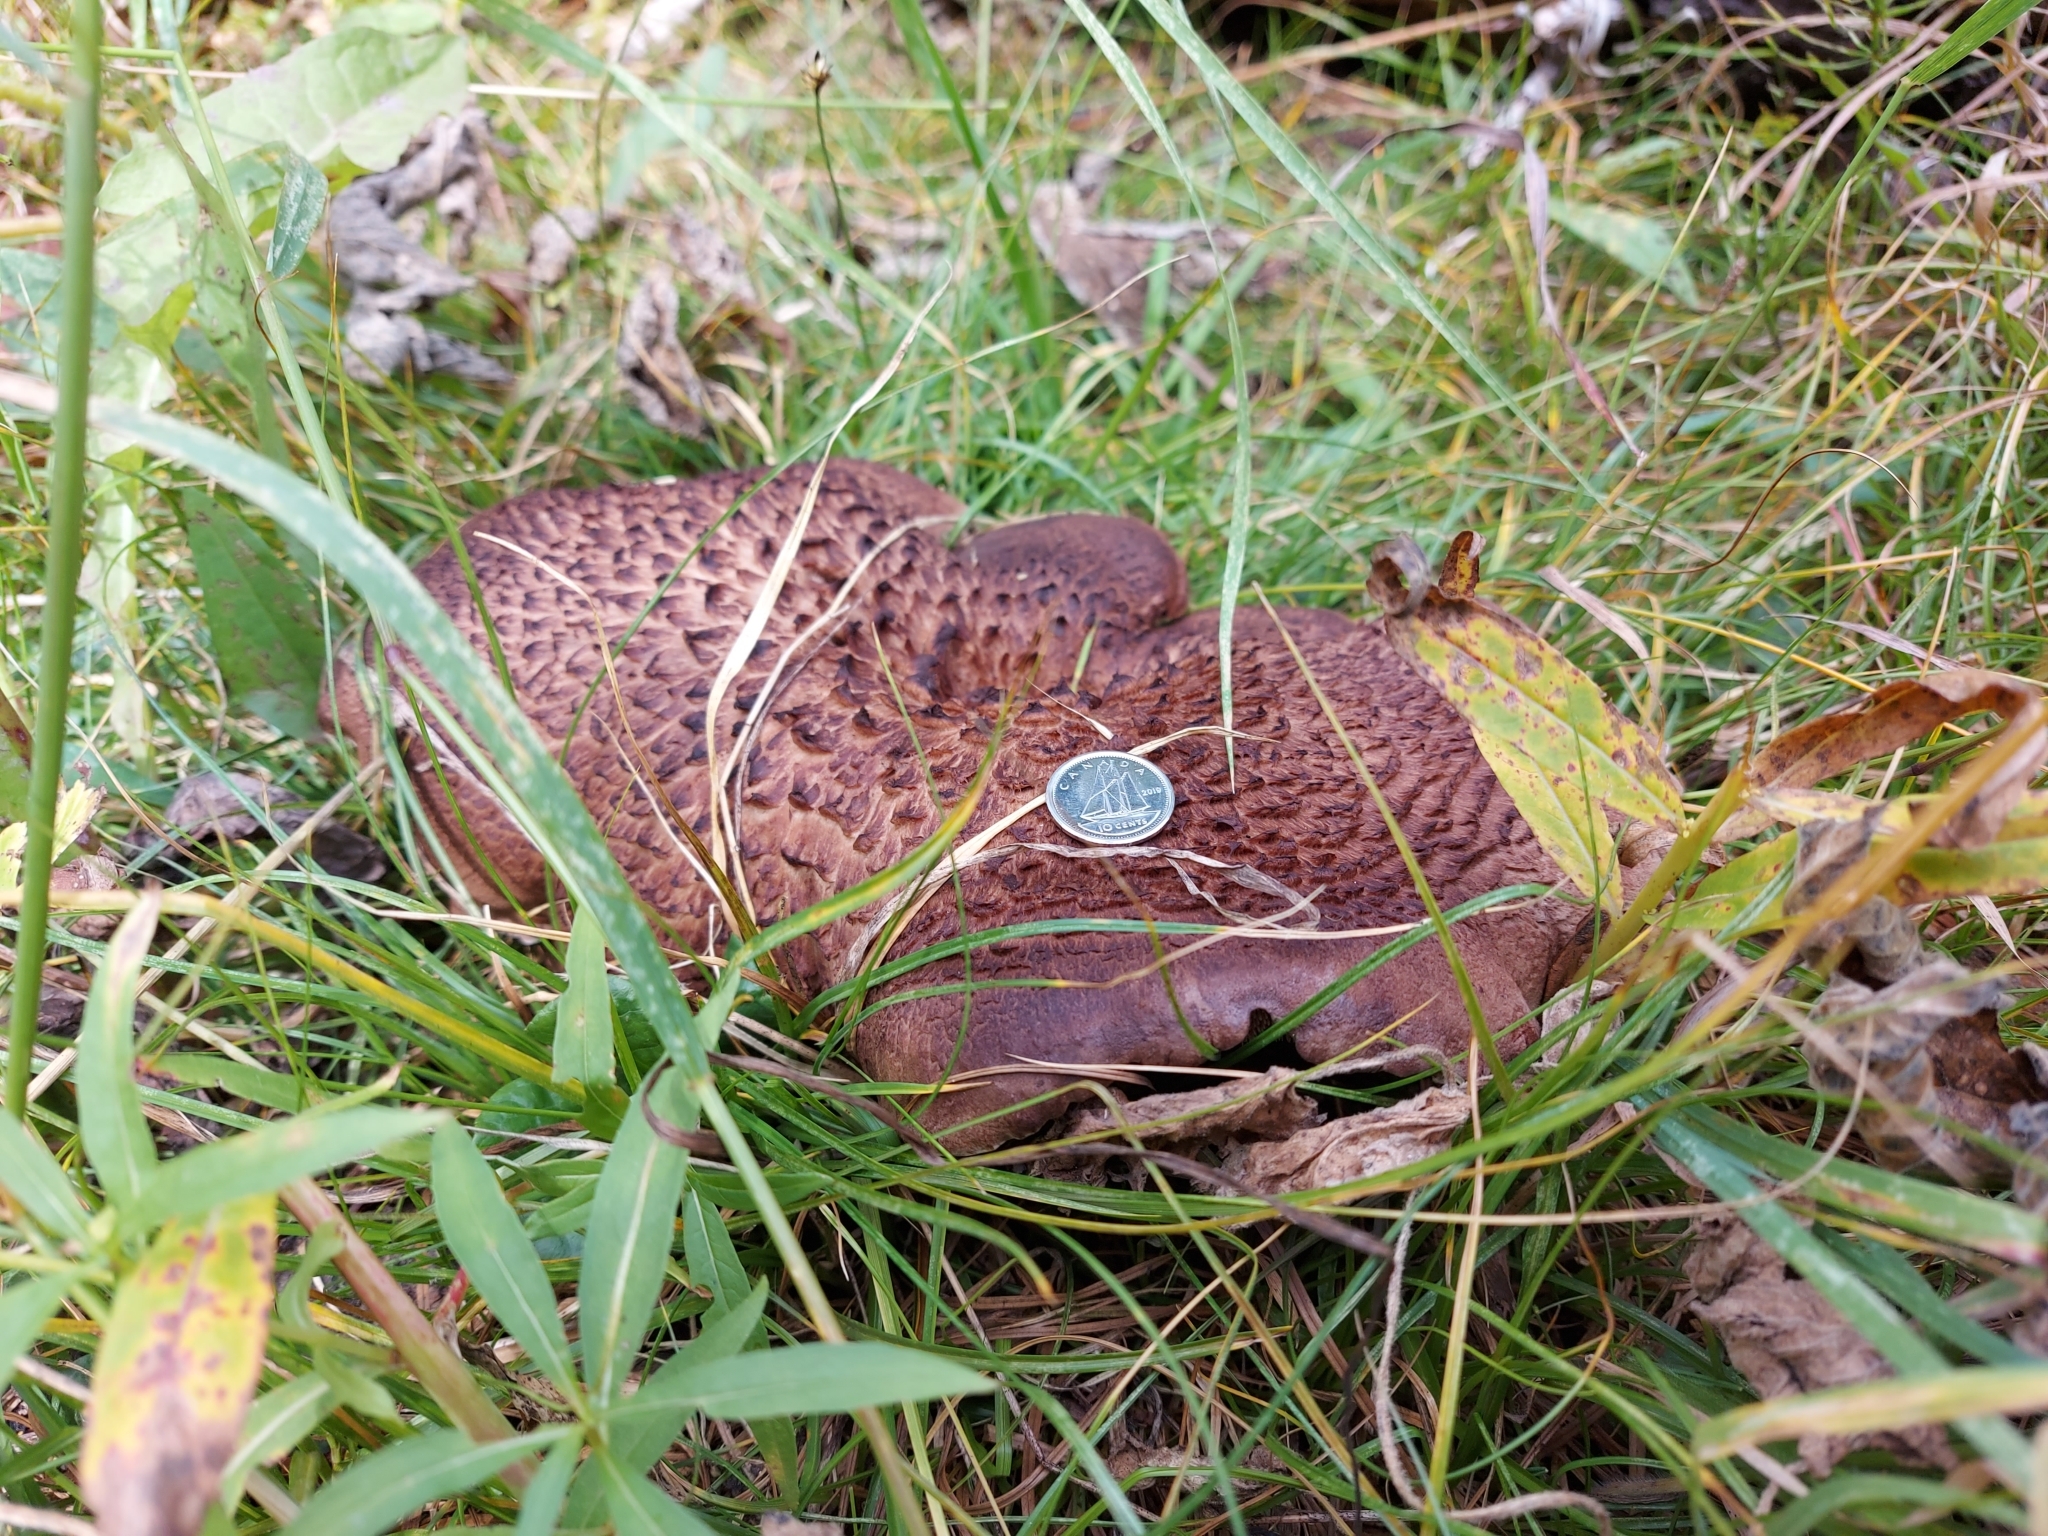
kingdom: Fungi
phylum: Basidiomycota
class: Agaricomycetes
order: Thelephorales
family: Bankeraceae
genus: Sarcodon
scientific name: Sarcodon imbricatus
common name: Shingled hedgehog
